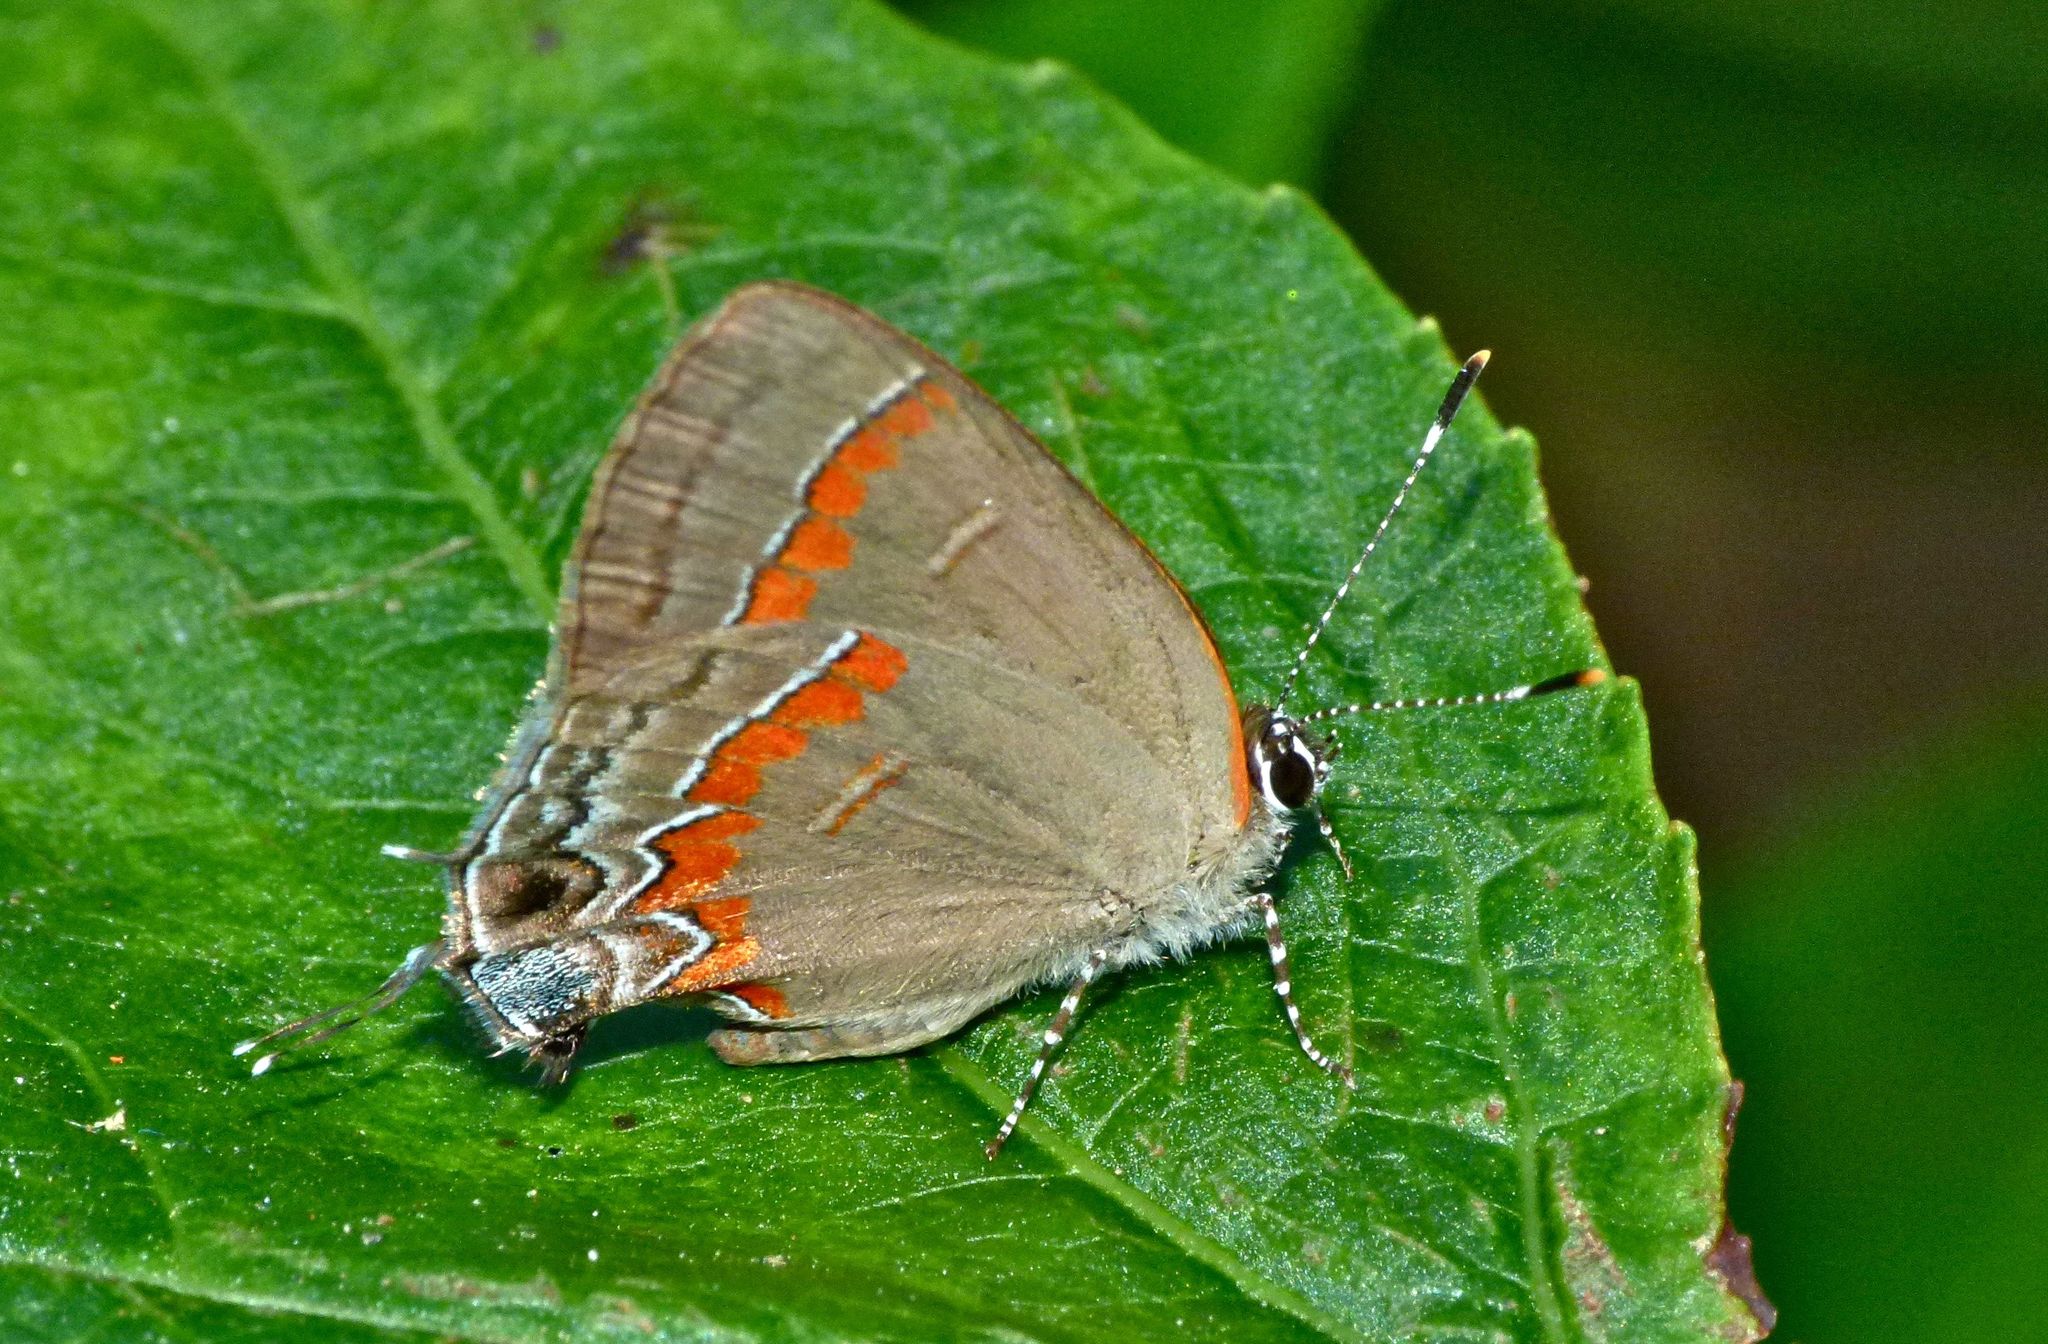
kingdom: Animalia
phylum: Arthropoda
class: Insecta
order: Lepidoptera
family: Lycaenidae
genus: Calycopis
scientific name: Calycopis cecrops
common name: Red-banded hairstreak
